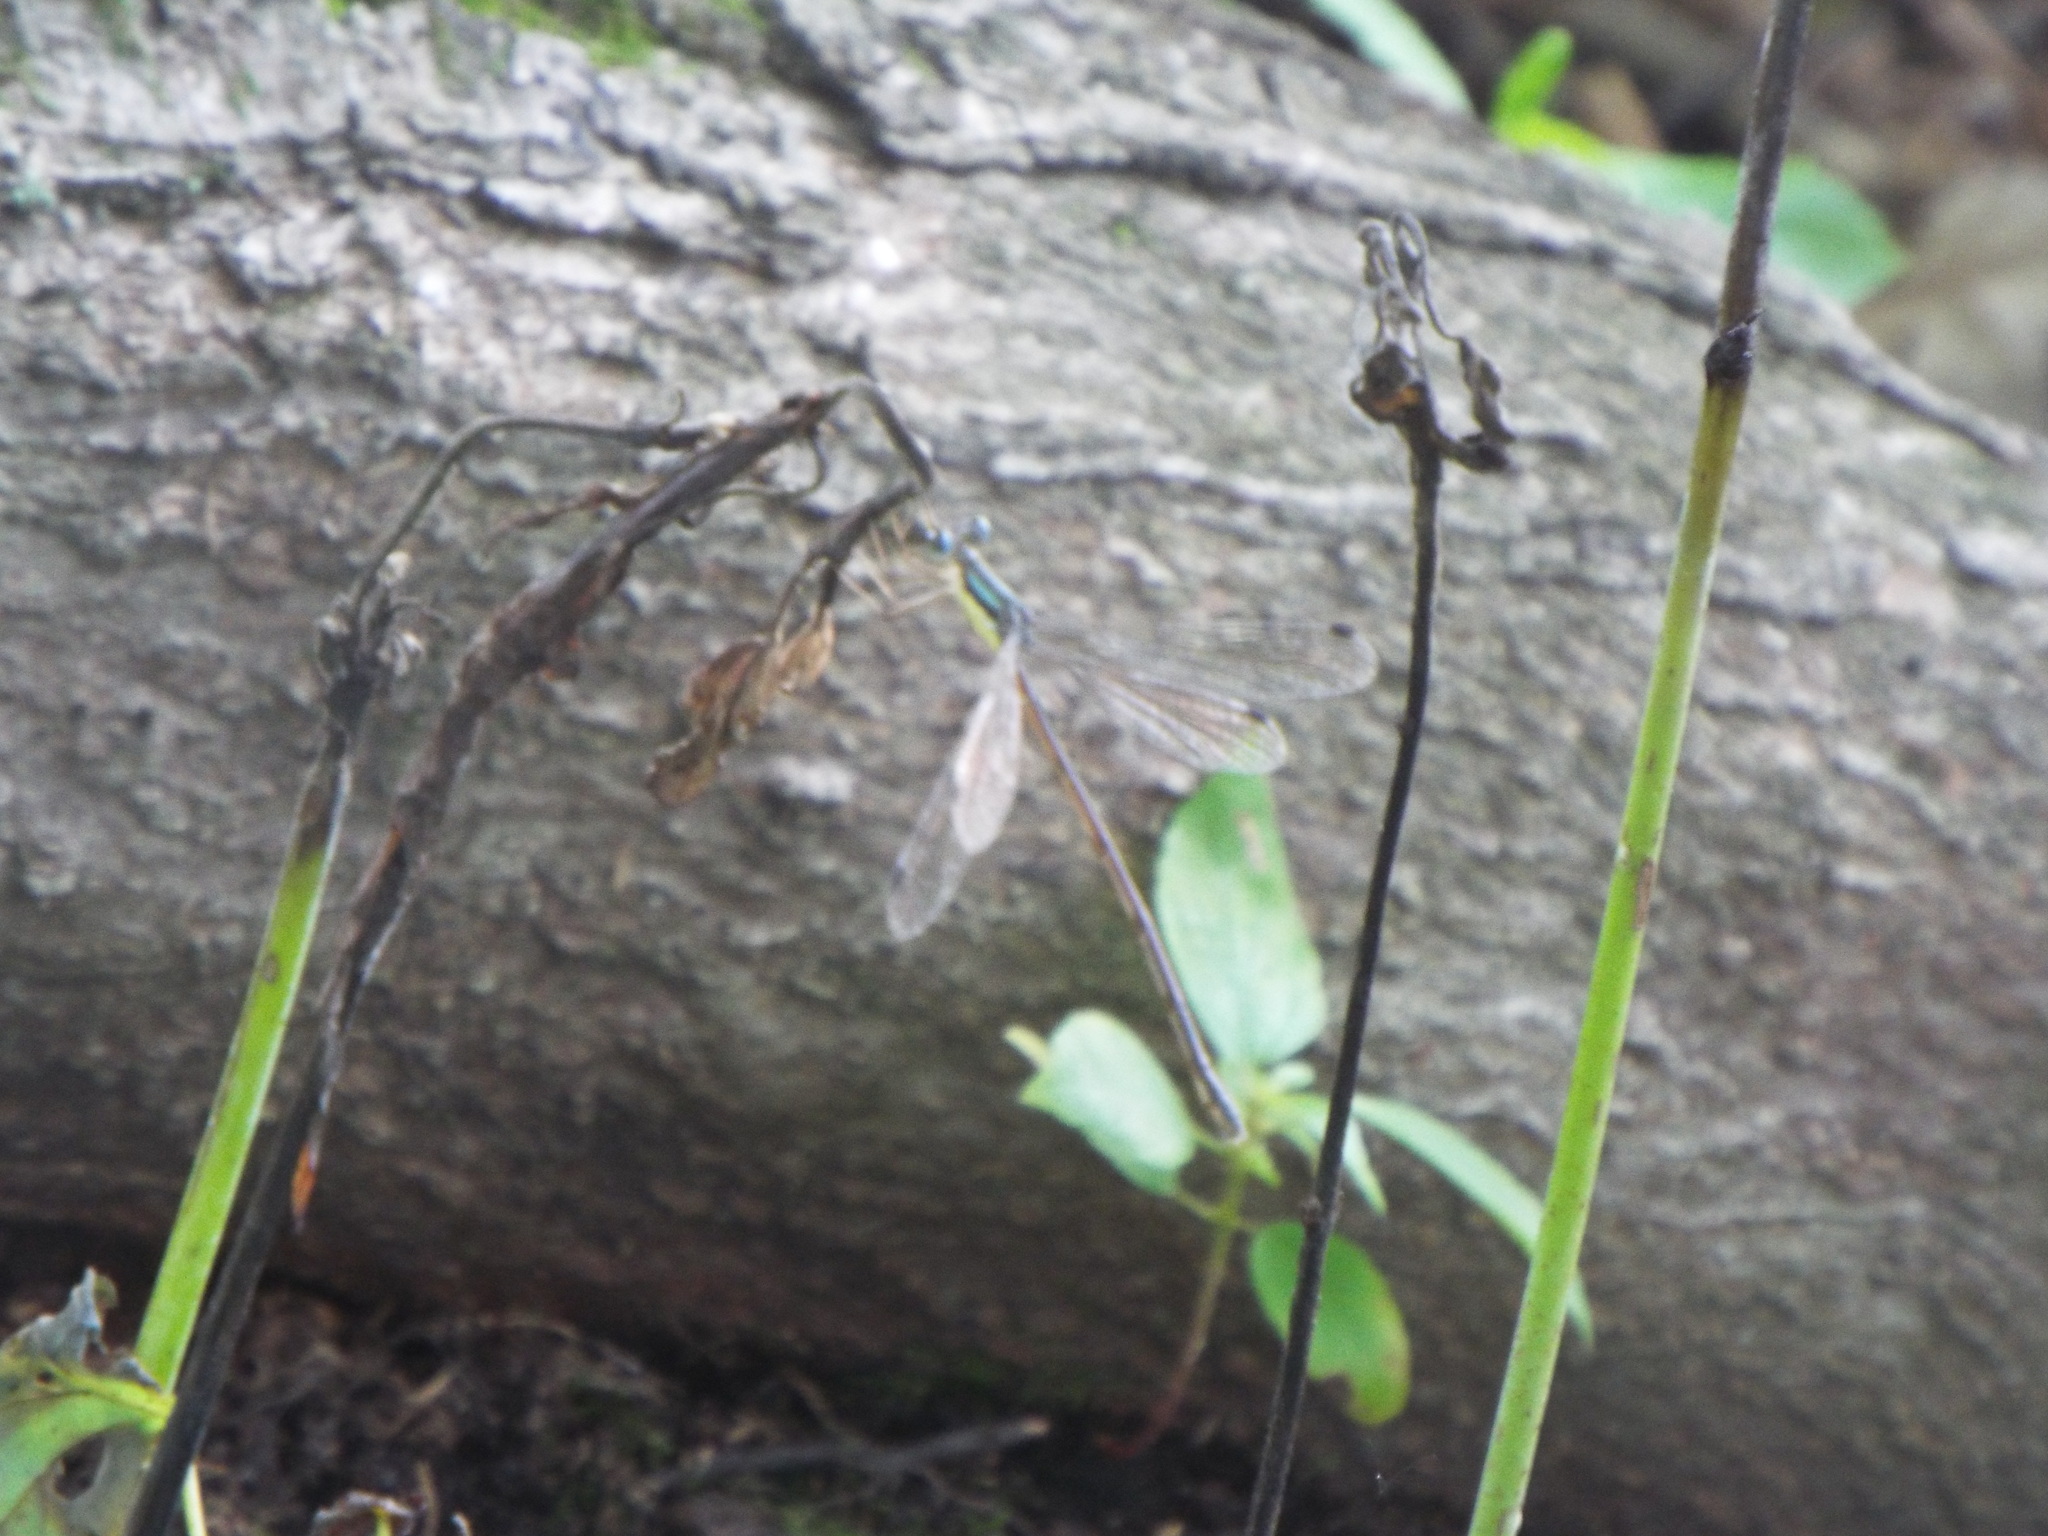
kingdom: Animalia
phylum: Arthropoda
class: Insecta
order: Odonata
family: Lestidae
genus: Lestes
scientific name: Lestes rectangularis
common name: Slender spreadwing
